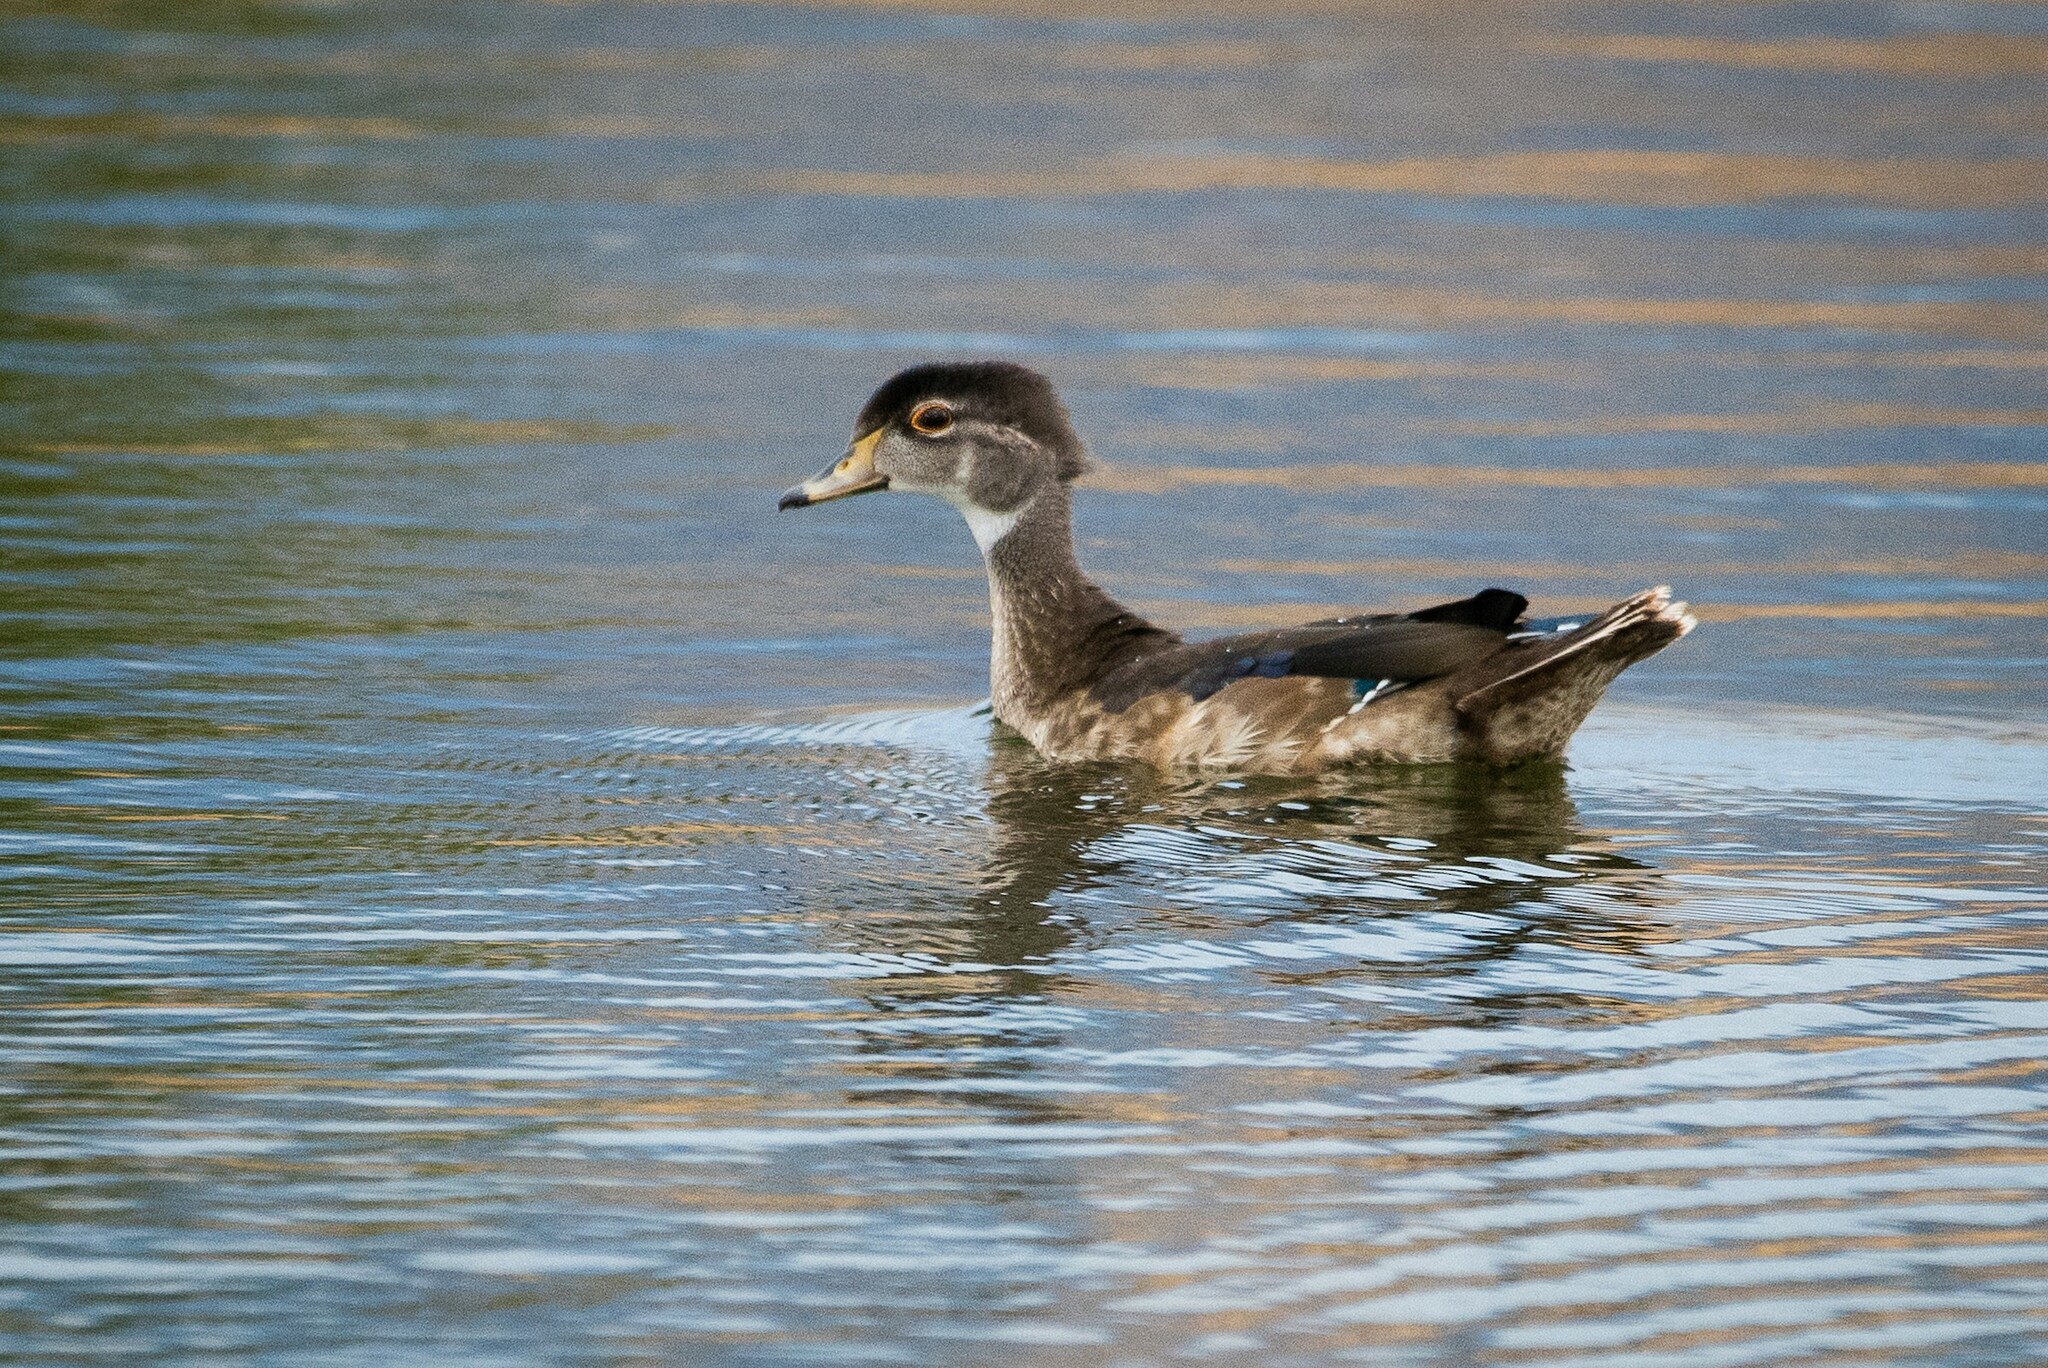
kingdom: Animalia
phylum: Chordata
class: Aves
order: Anseriformes
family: Anatidae
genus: Aix
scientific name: Aix sponsa
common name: Wood duck
